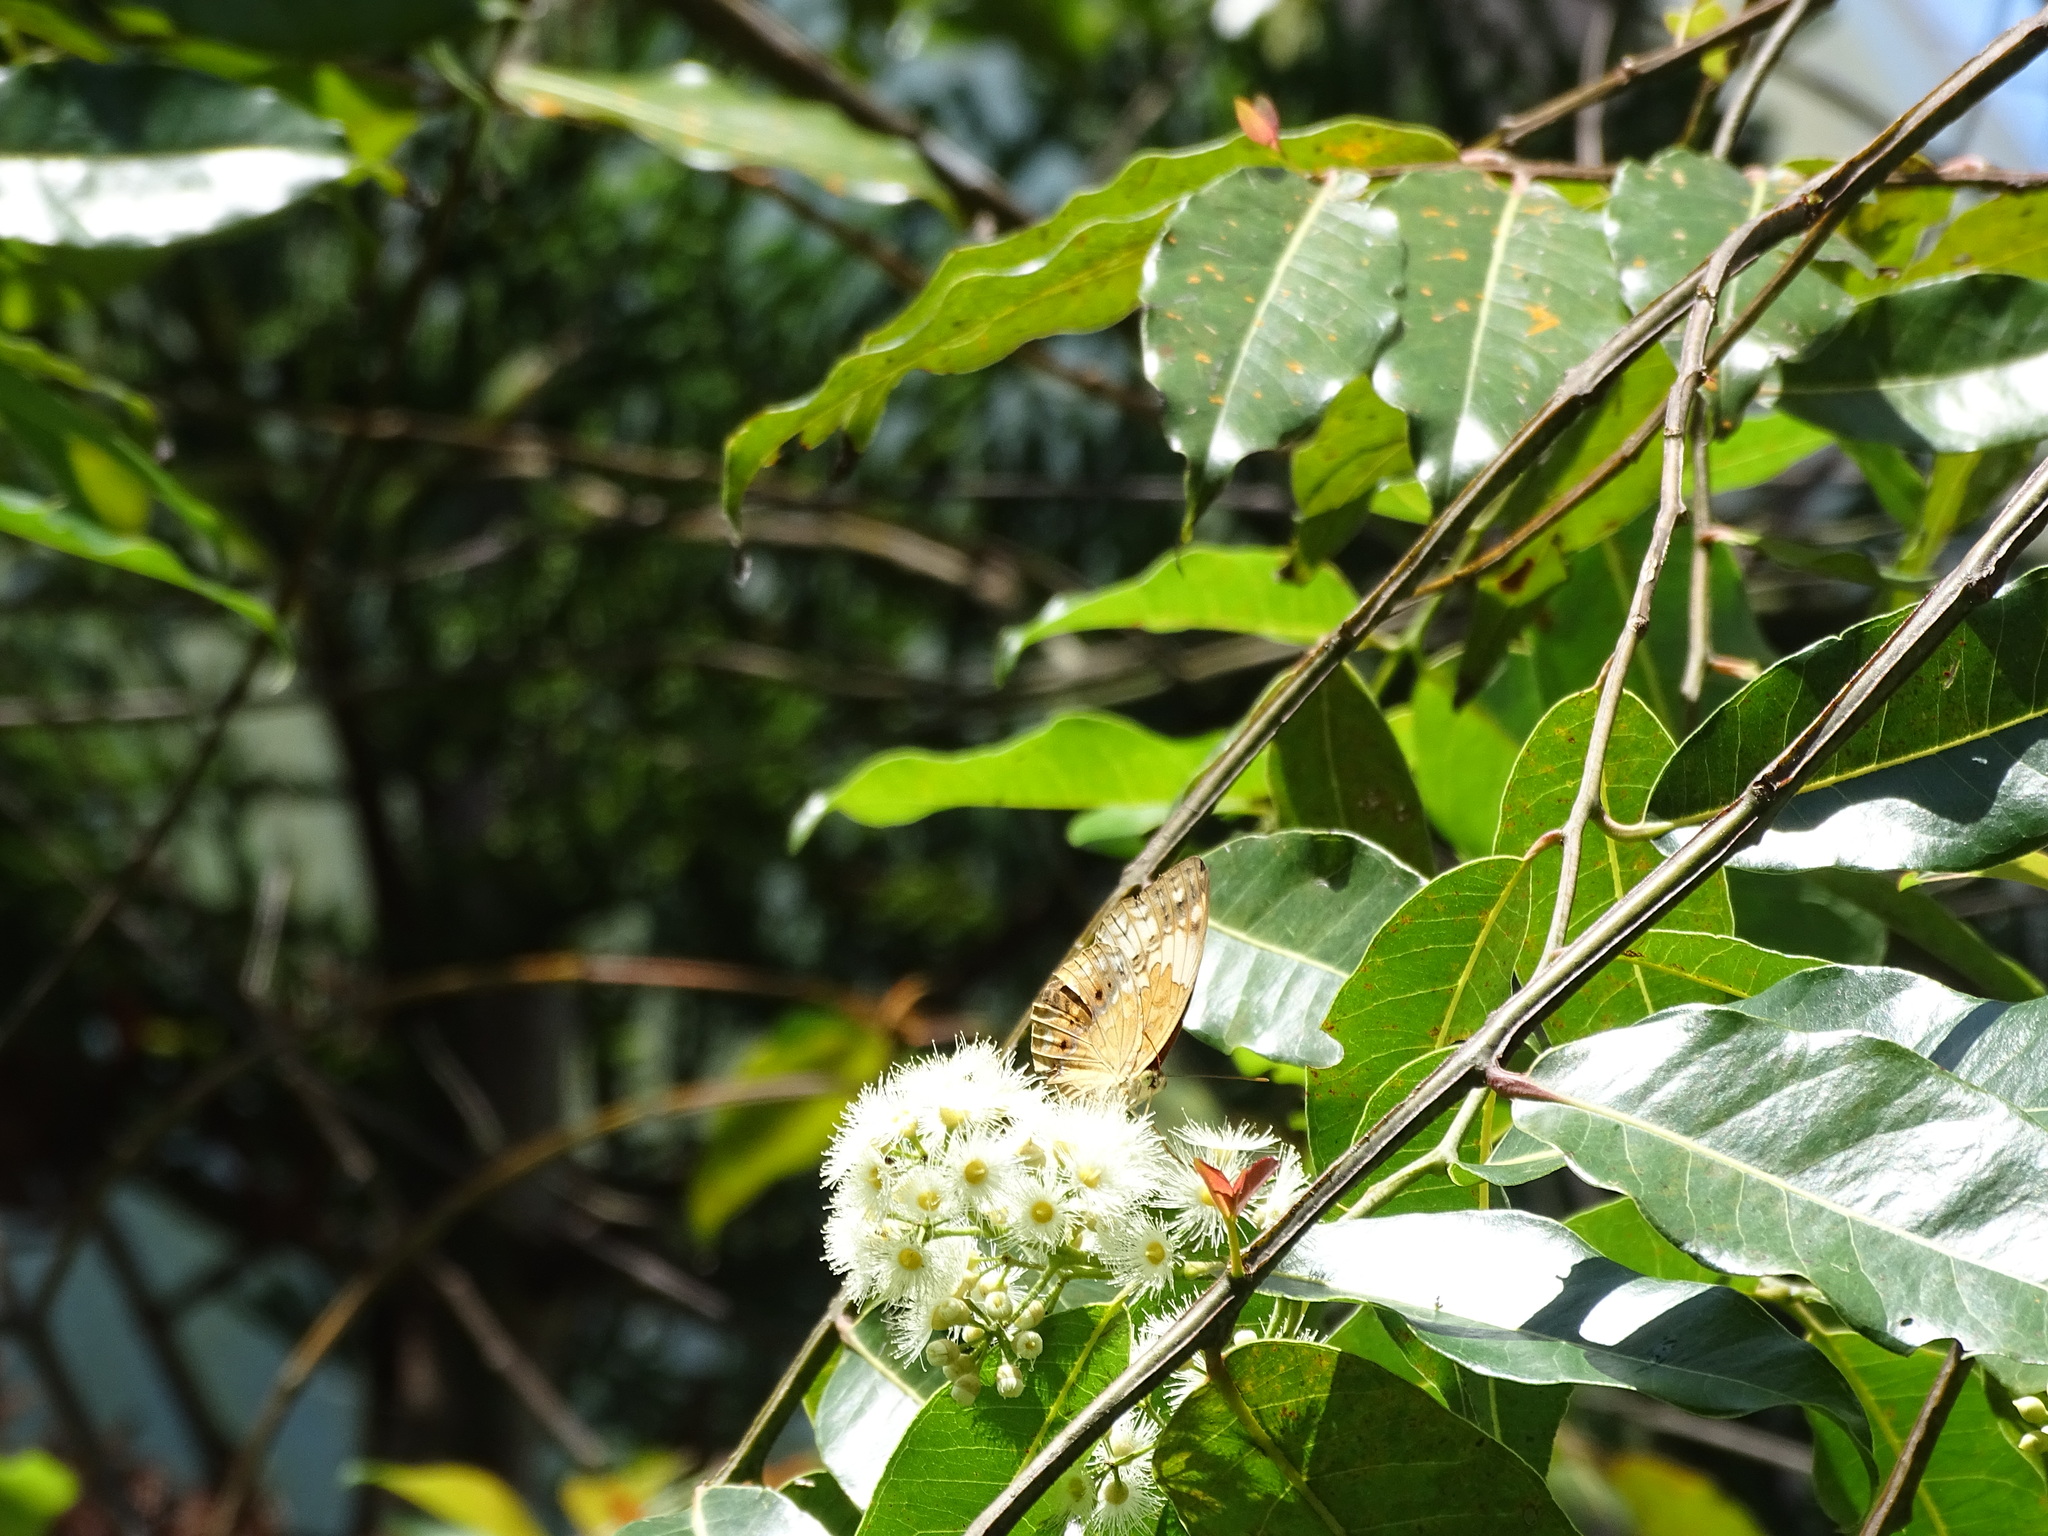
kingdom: Animalia
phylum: Arthropoda
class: Insecta
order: Lepidoptera
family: Nymphalidae
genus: Cupha
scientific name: Cupha erymanthis
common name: Rustic
